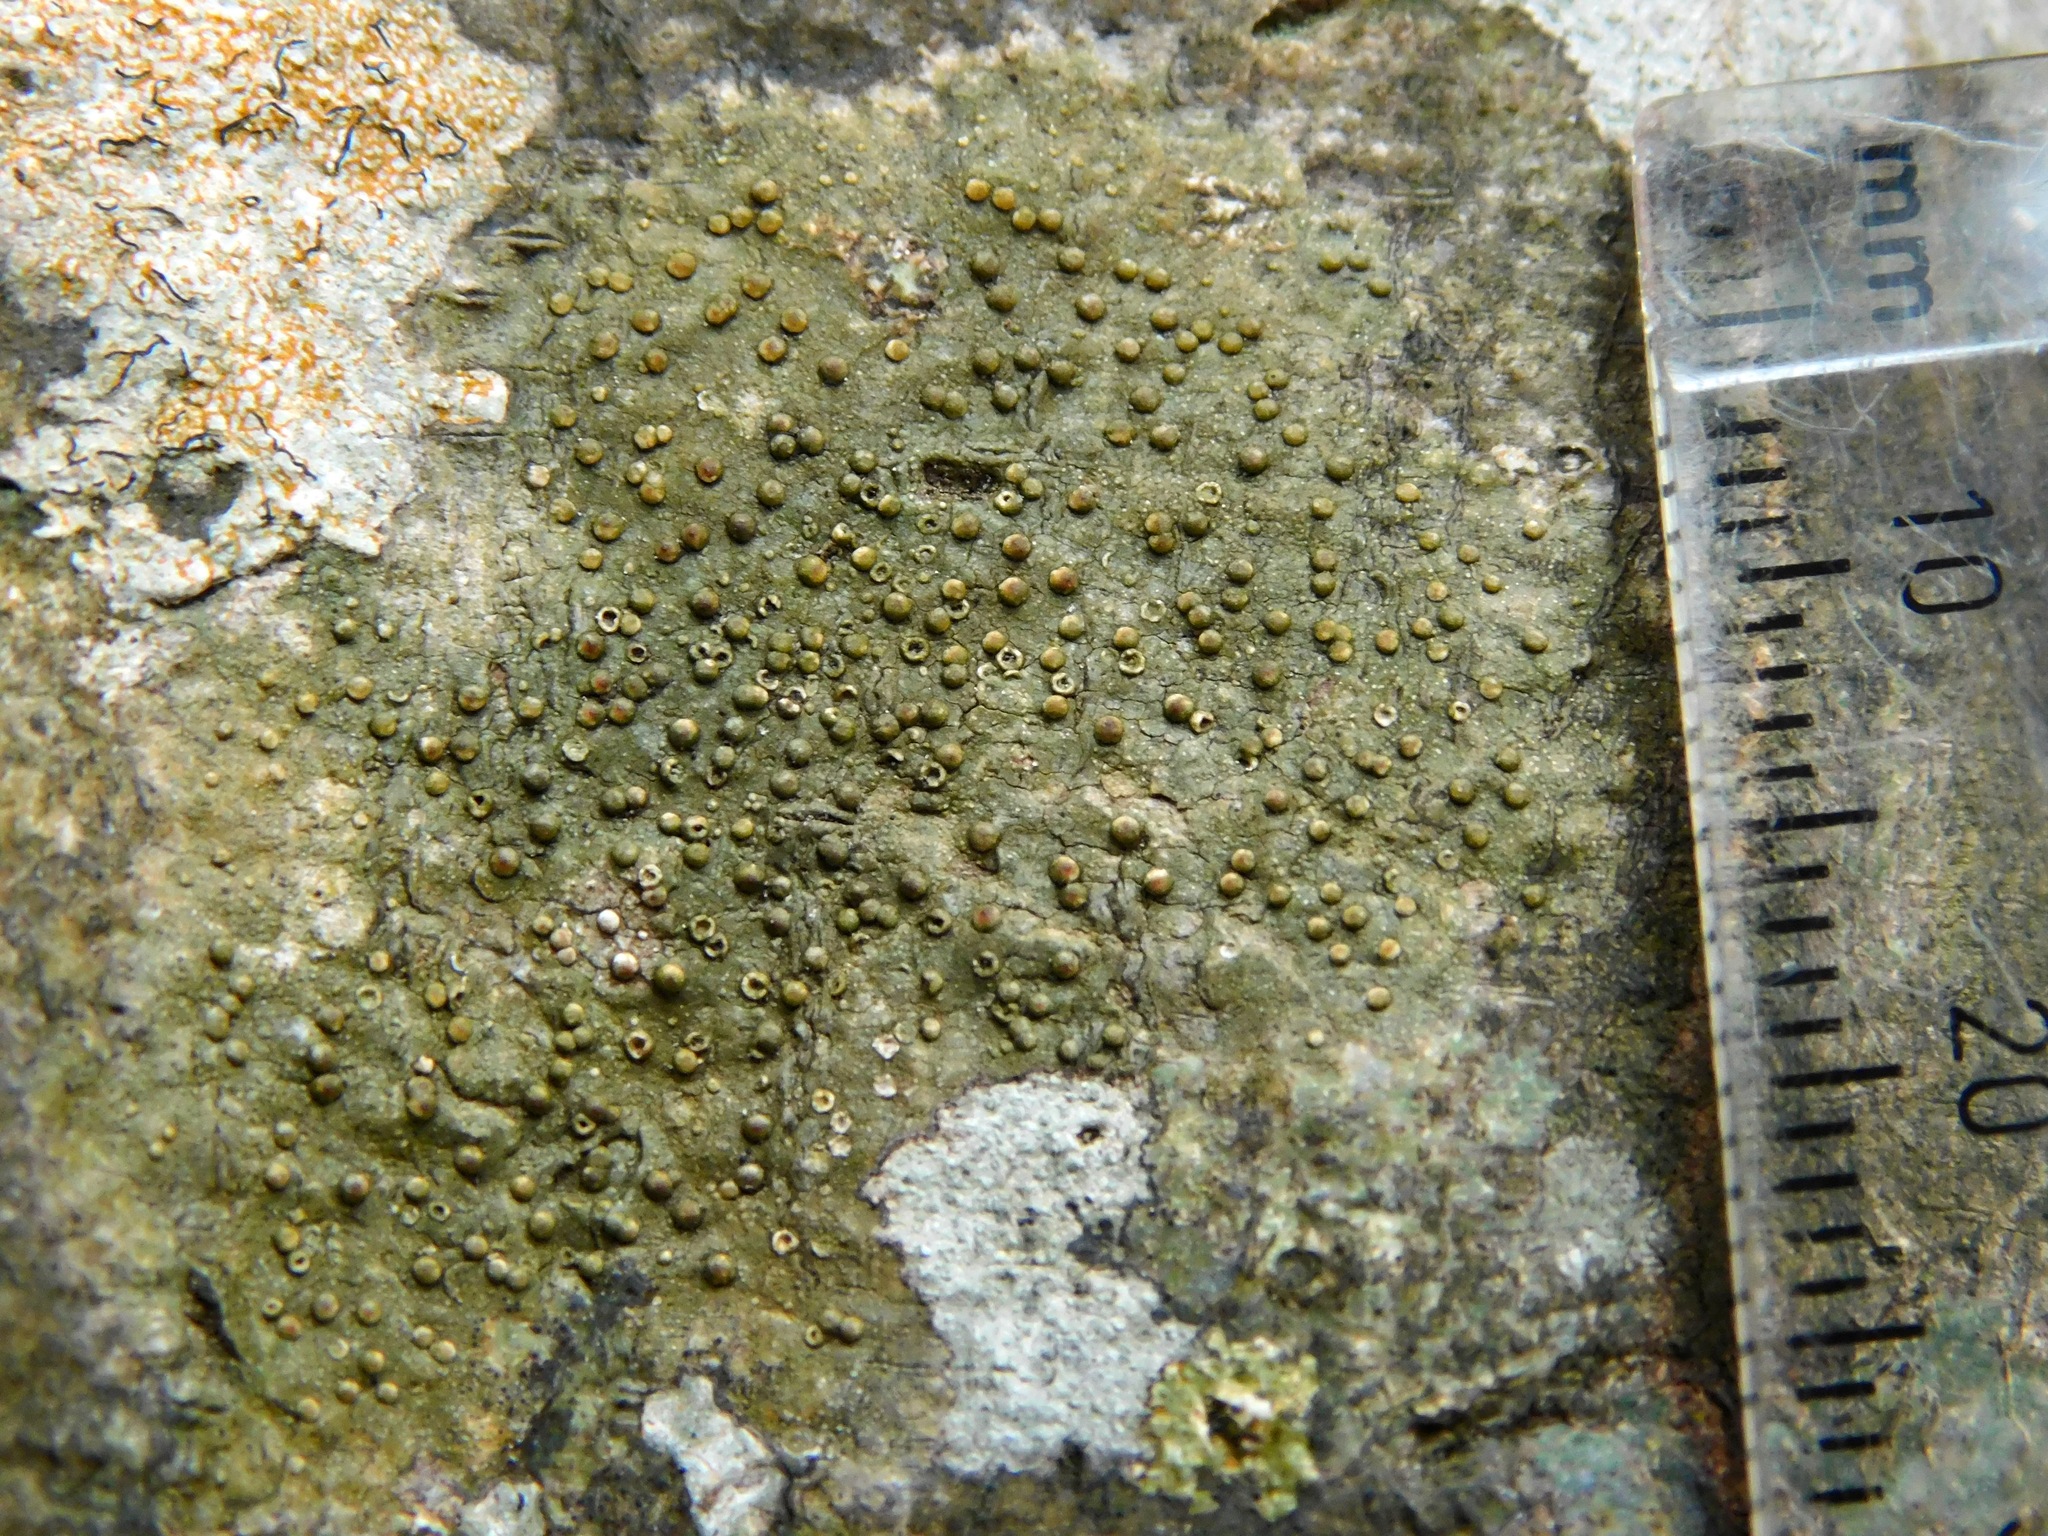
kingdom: Fungi
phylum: Ascomycota
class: Lecanoromycetes
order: Pertusariales
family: Pertusariaceae
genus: Porina
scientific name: Porina heterospora
